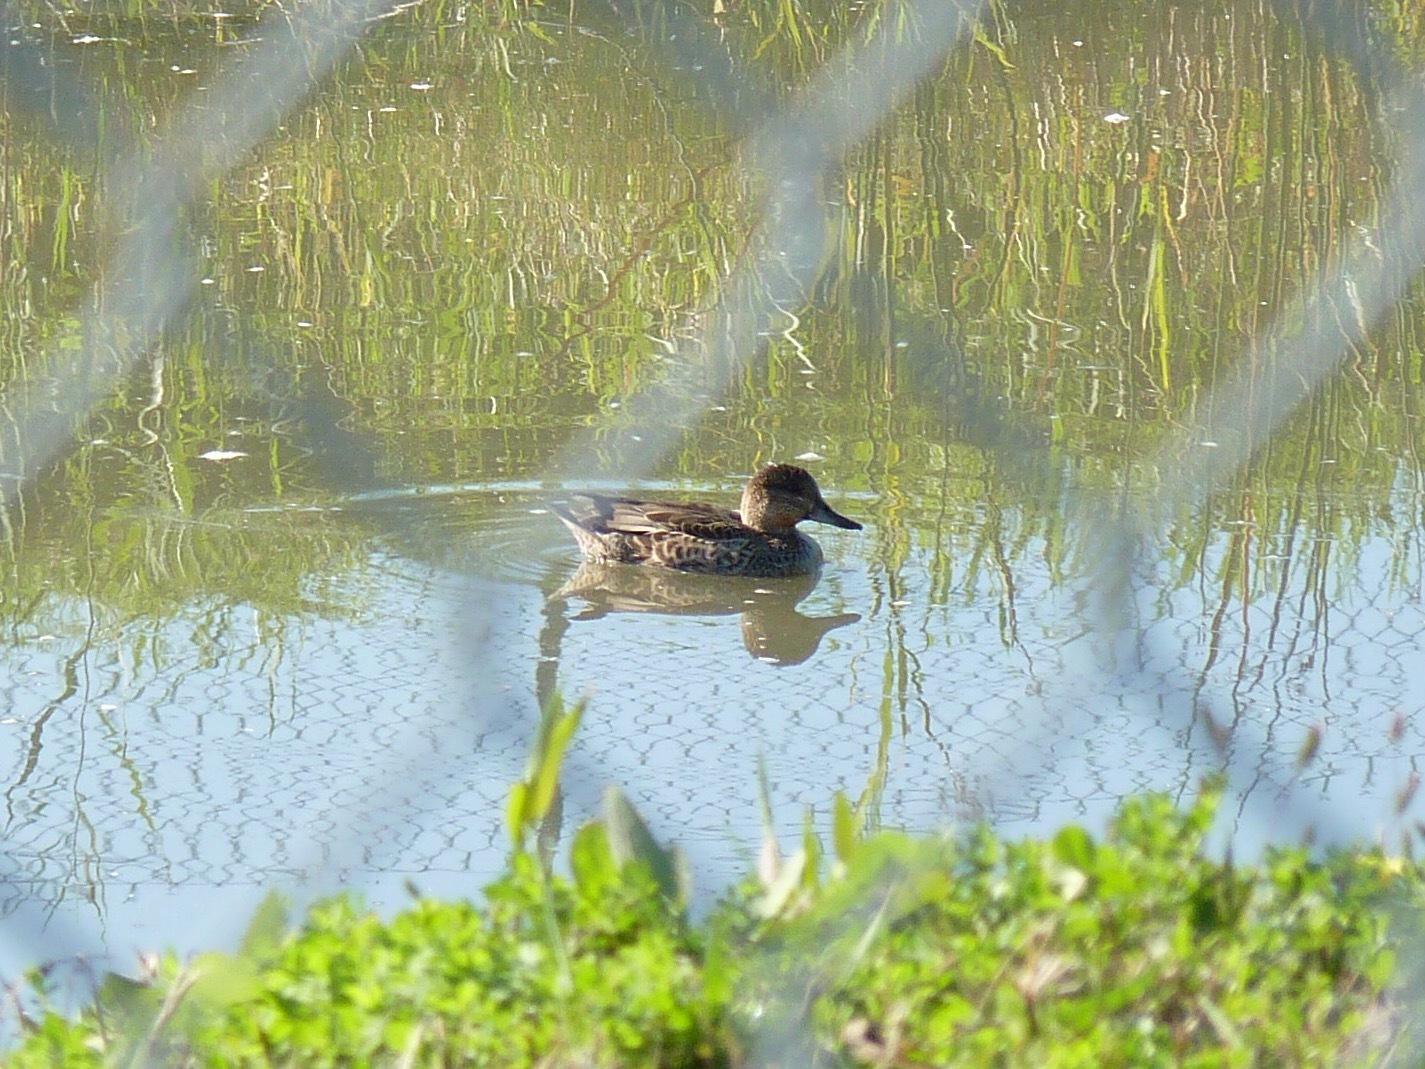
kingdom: Animalia
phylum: Chordata
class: Aves
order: Anseriformes
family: Anatidae
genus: Anas
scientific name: Anas crecca
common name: Eurasian teal
